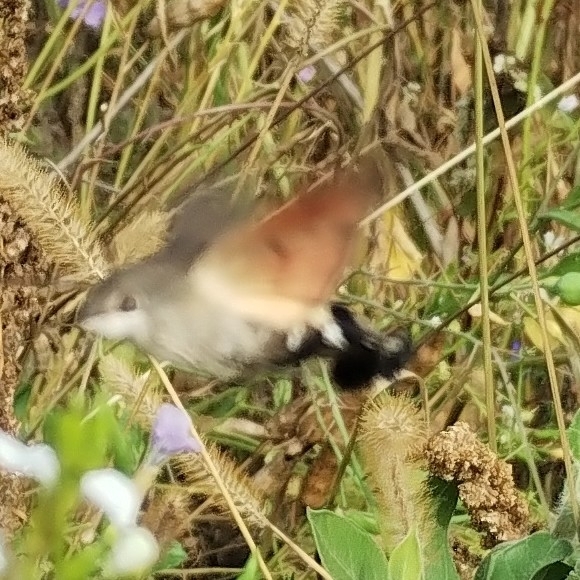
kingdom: Animalia
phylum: Arthropoda
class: Insecta
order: Lepidoptera
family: Sphingidae
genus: Macroglossum
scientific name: Macroglossum stellatarum
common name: Humming-bird hawk-moth
